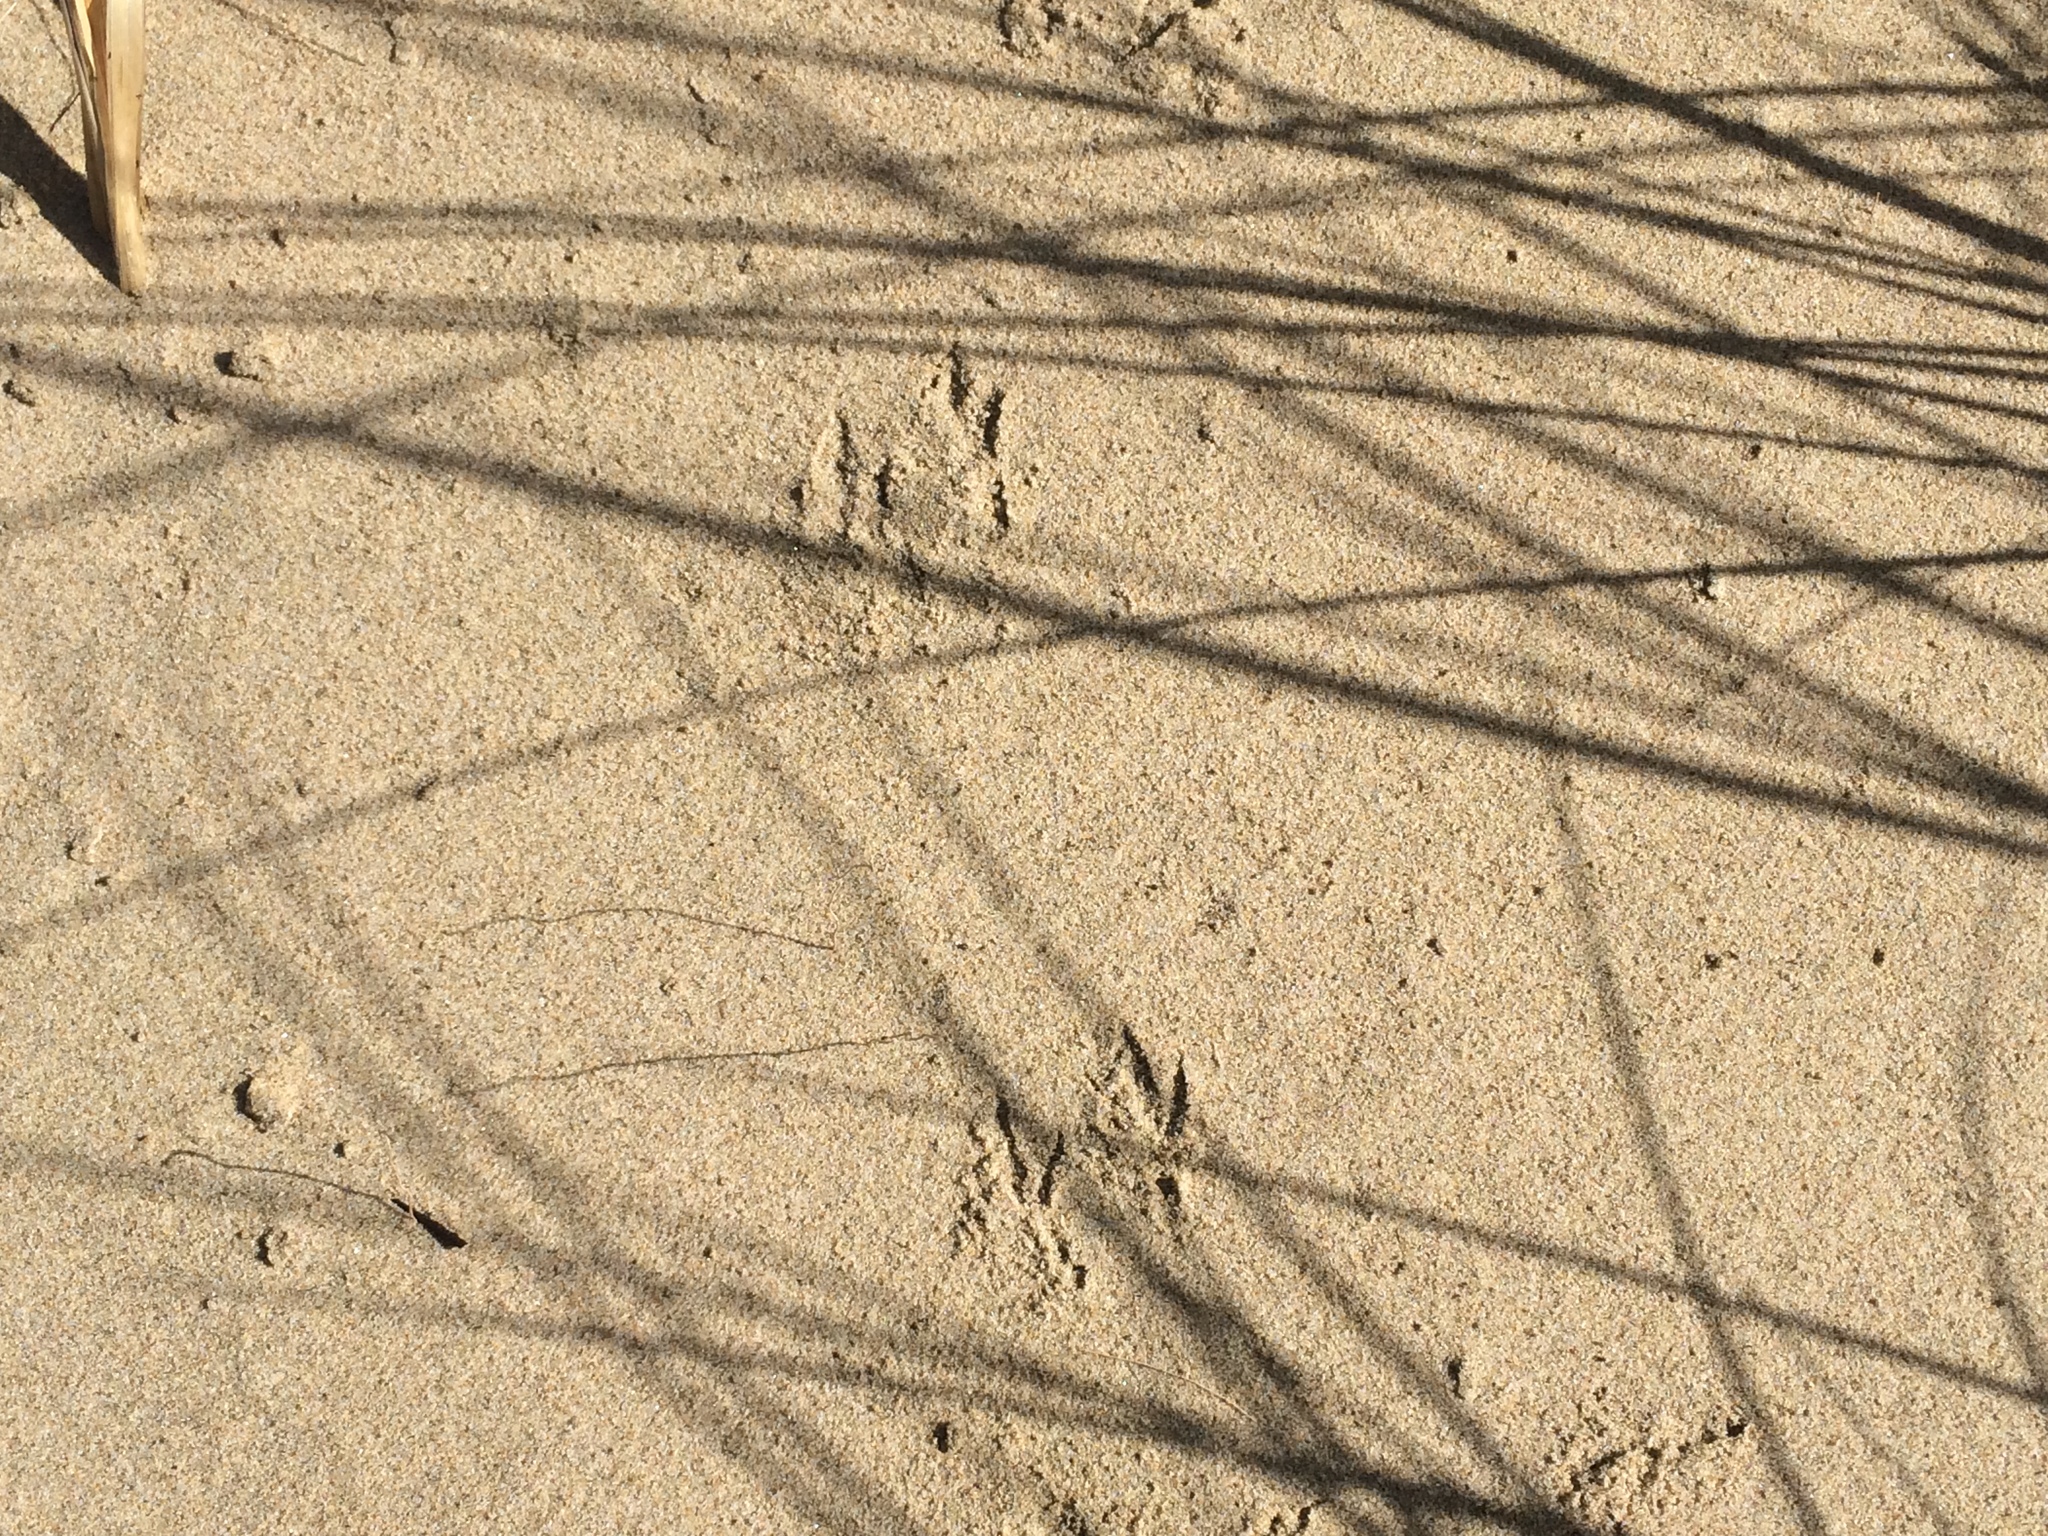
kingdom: Animalia
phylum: Chordata
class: Aves
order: Passeriformes
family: Motacillidae
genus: Anthus
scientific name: Anthus novaeseelandiae
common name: New zealand pipit
